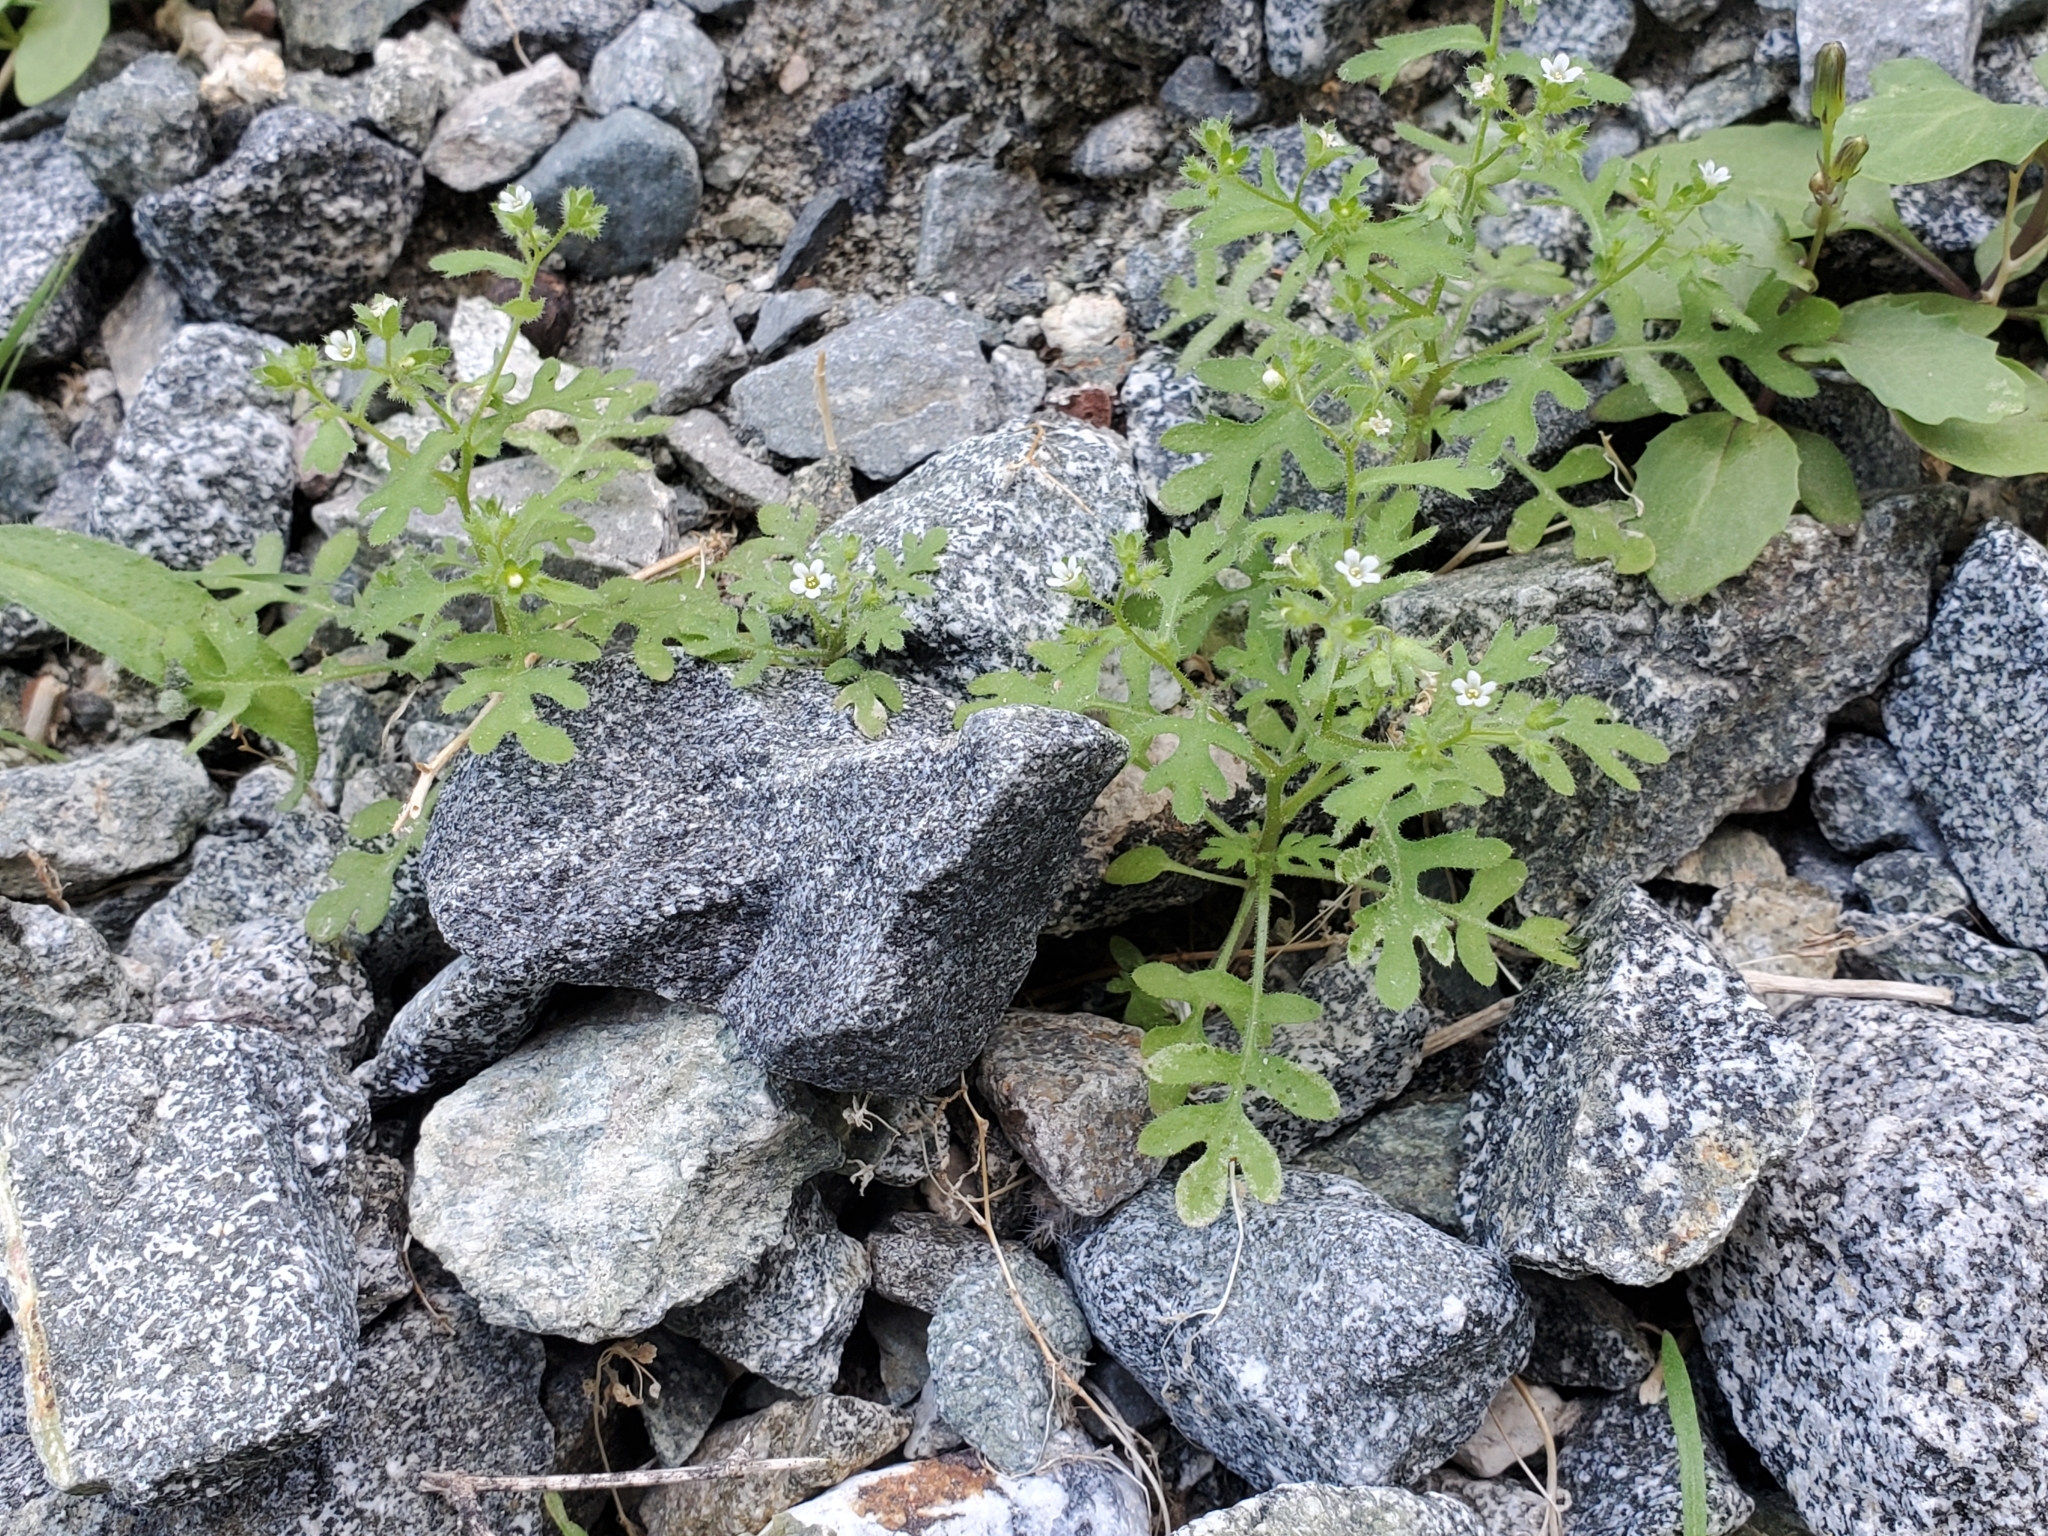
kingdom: Plantae
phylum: Tracheophyta
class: Magnoliopsida
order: Boraginales
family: Hydrophyllaceae
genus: Eucrypta
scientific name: Eucrypta micrantha
